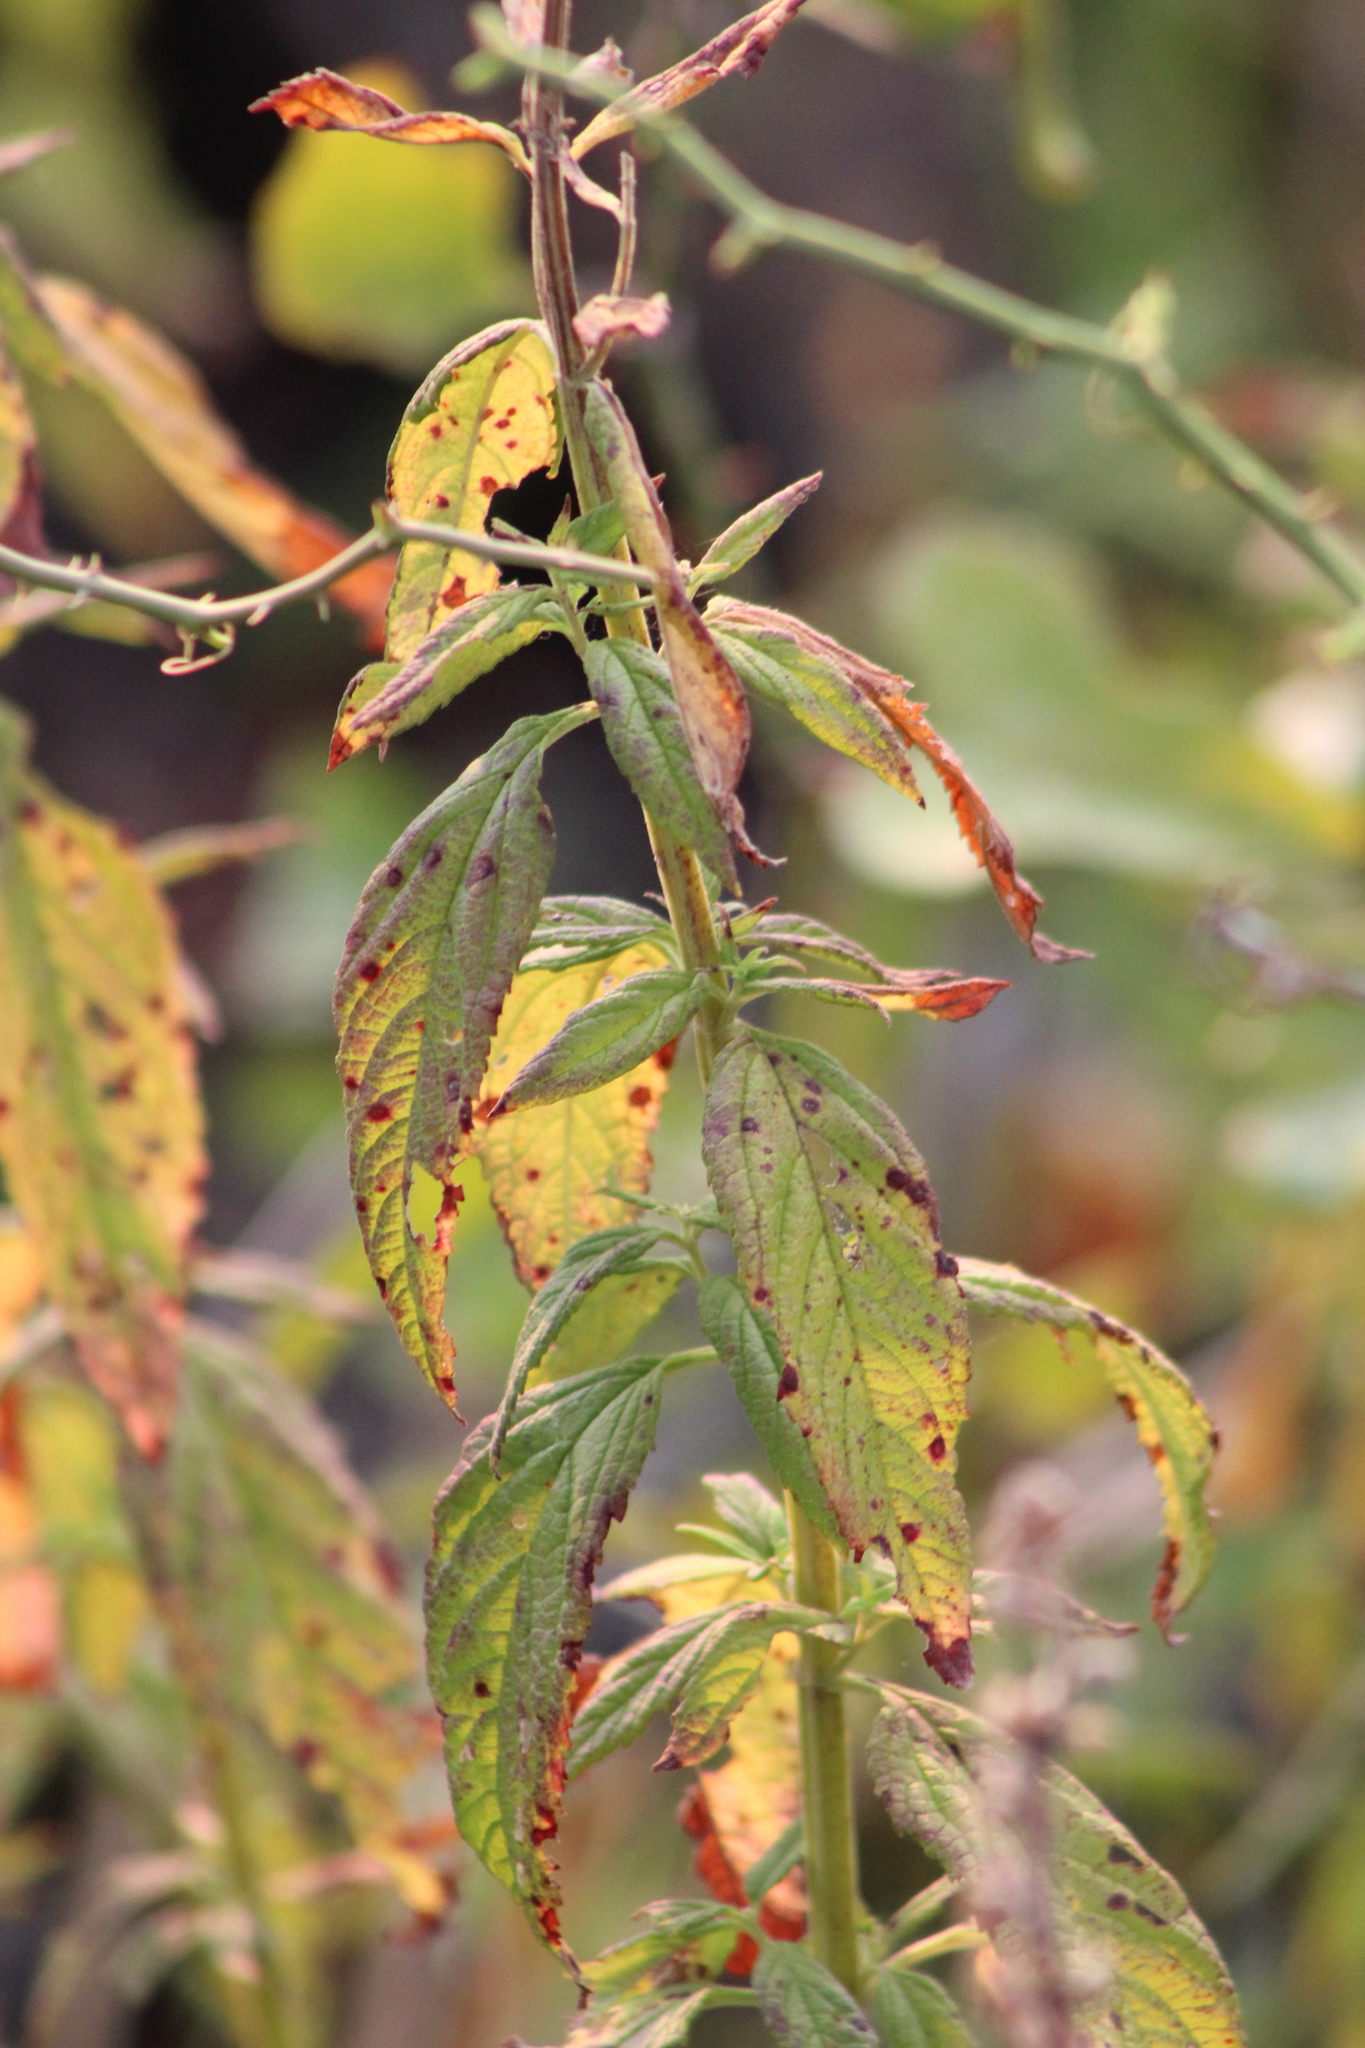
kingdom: Plantae
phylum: Tracheophyta
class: Magnoliopsida
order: Lamiales
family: Lamiaceae
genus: Teucrium
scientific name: Teucrium canadense
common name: American germander
